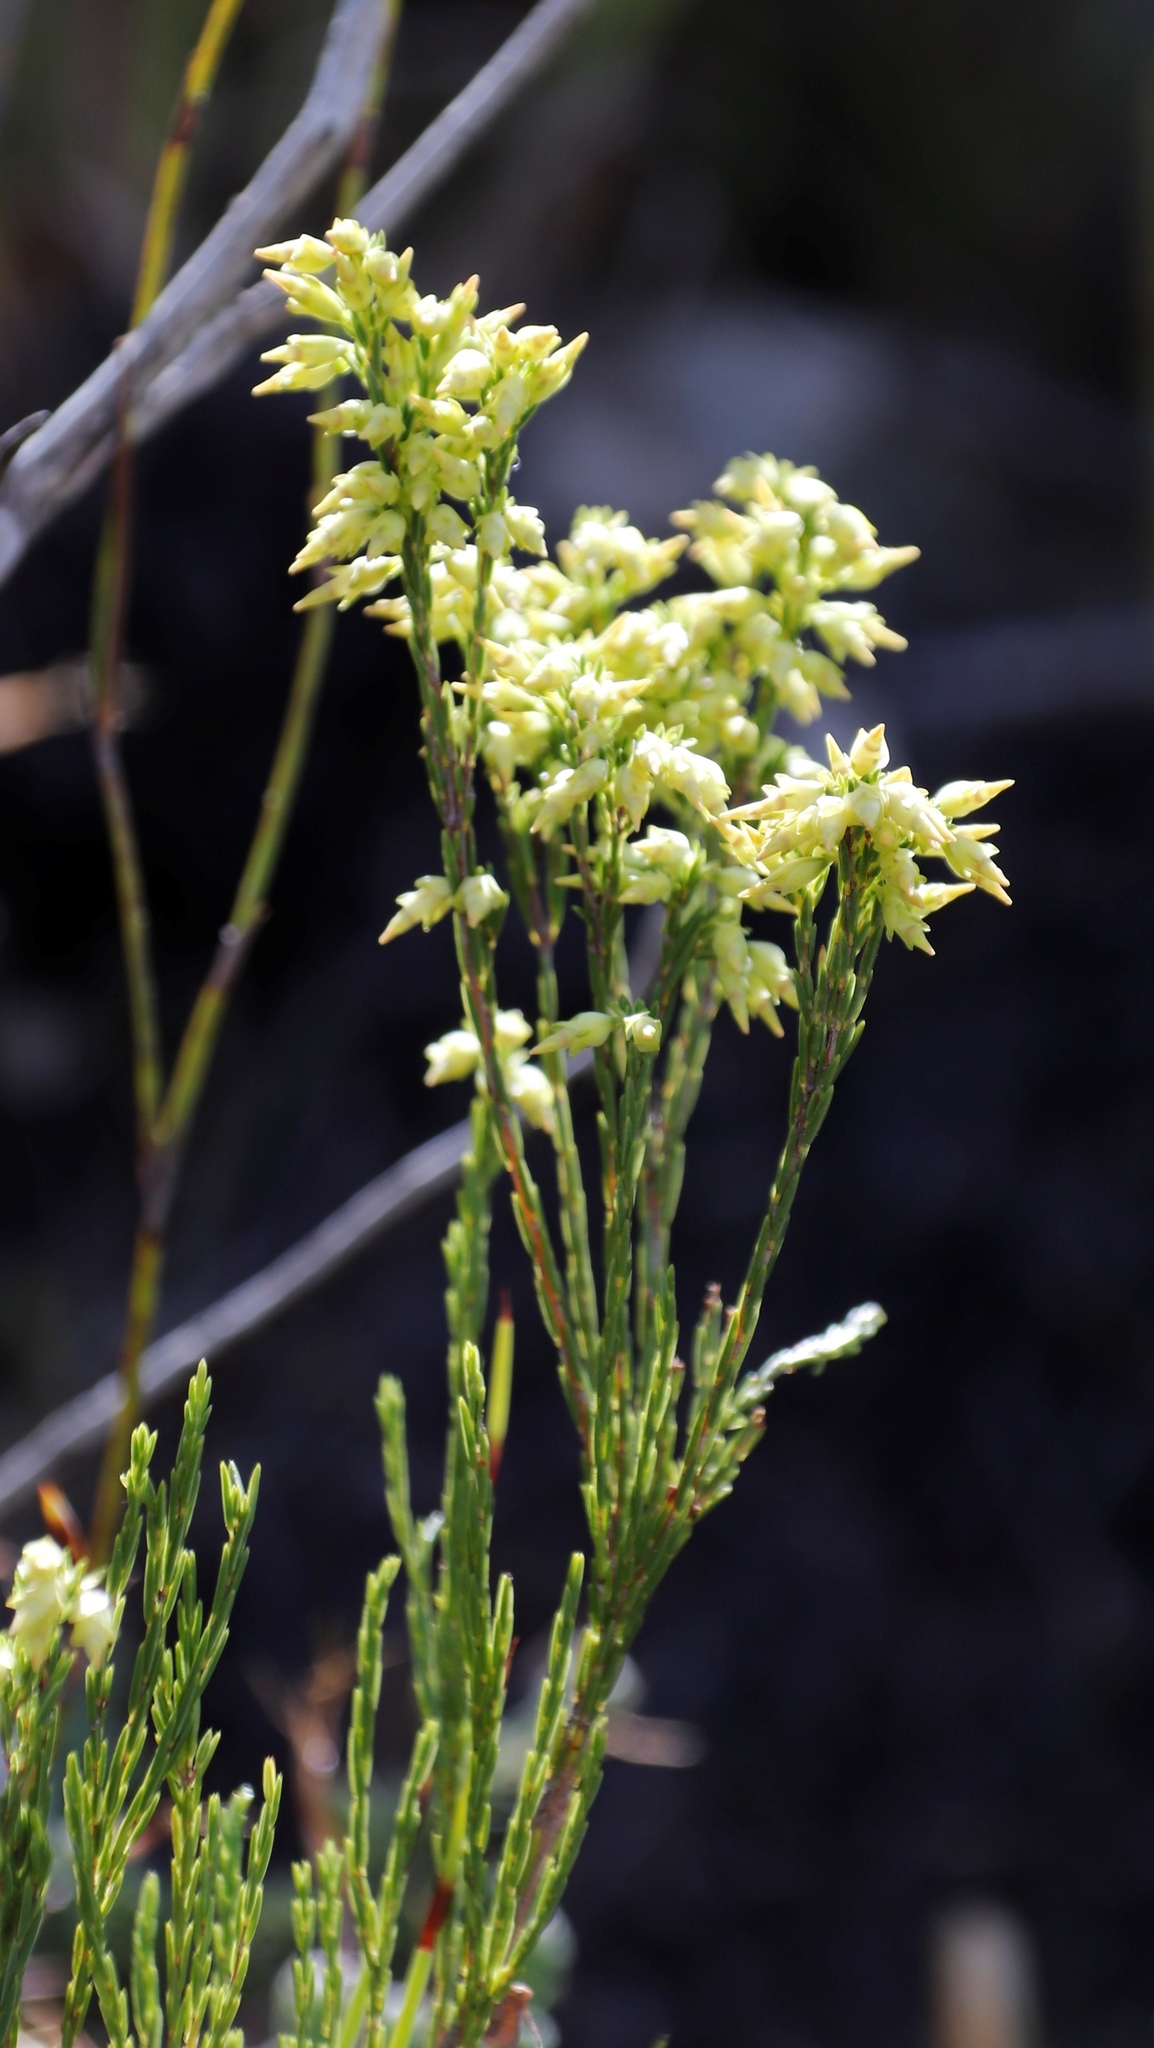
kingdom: Plantae
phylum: Tracheophyta
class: Magnoliopsida
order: Ericales
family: Ericaceae
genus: Erica
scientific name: Erica lutea
